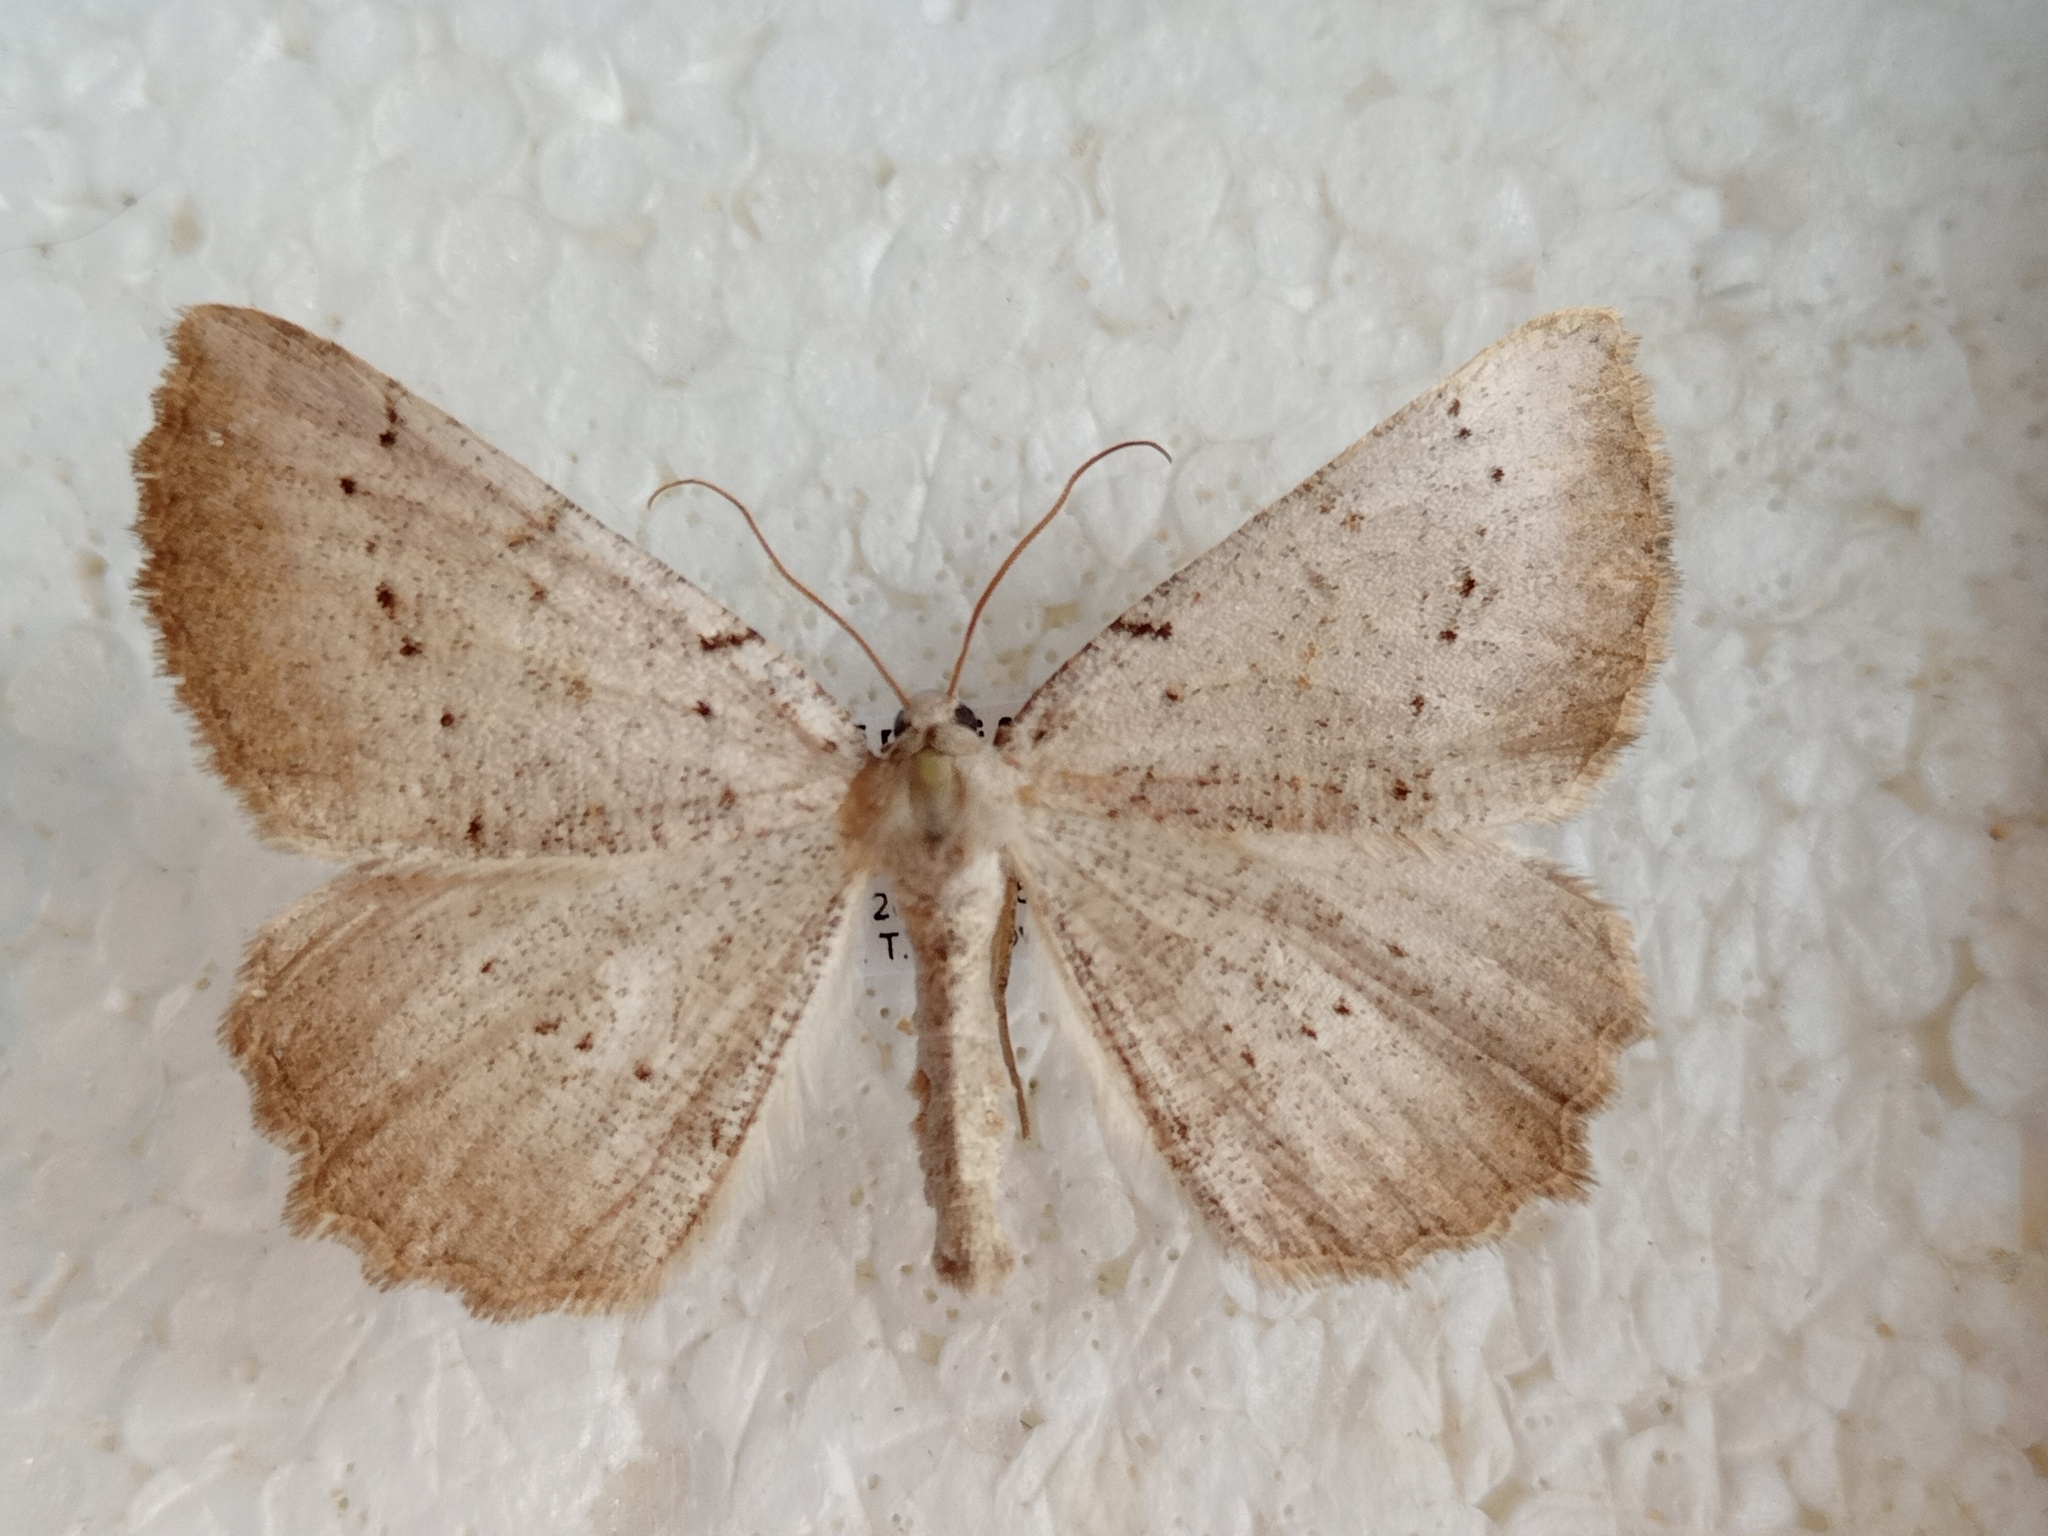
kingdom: Animalia
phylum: Arthropoda
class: Insecta
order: Lepidoptera
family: Geometridae
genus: Odontognophos
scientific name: Odontognophos dumetata
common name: Irish annulet
